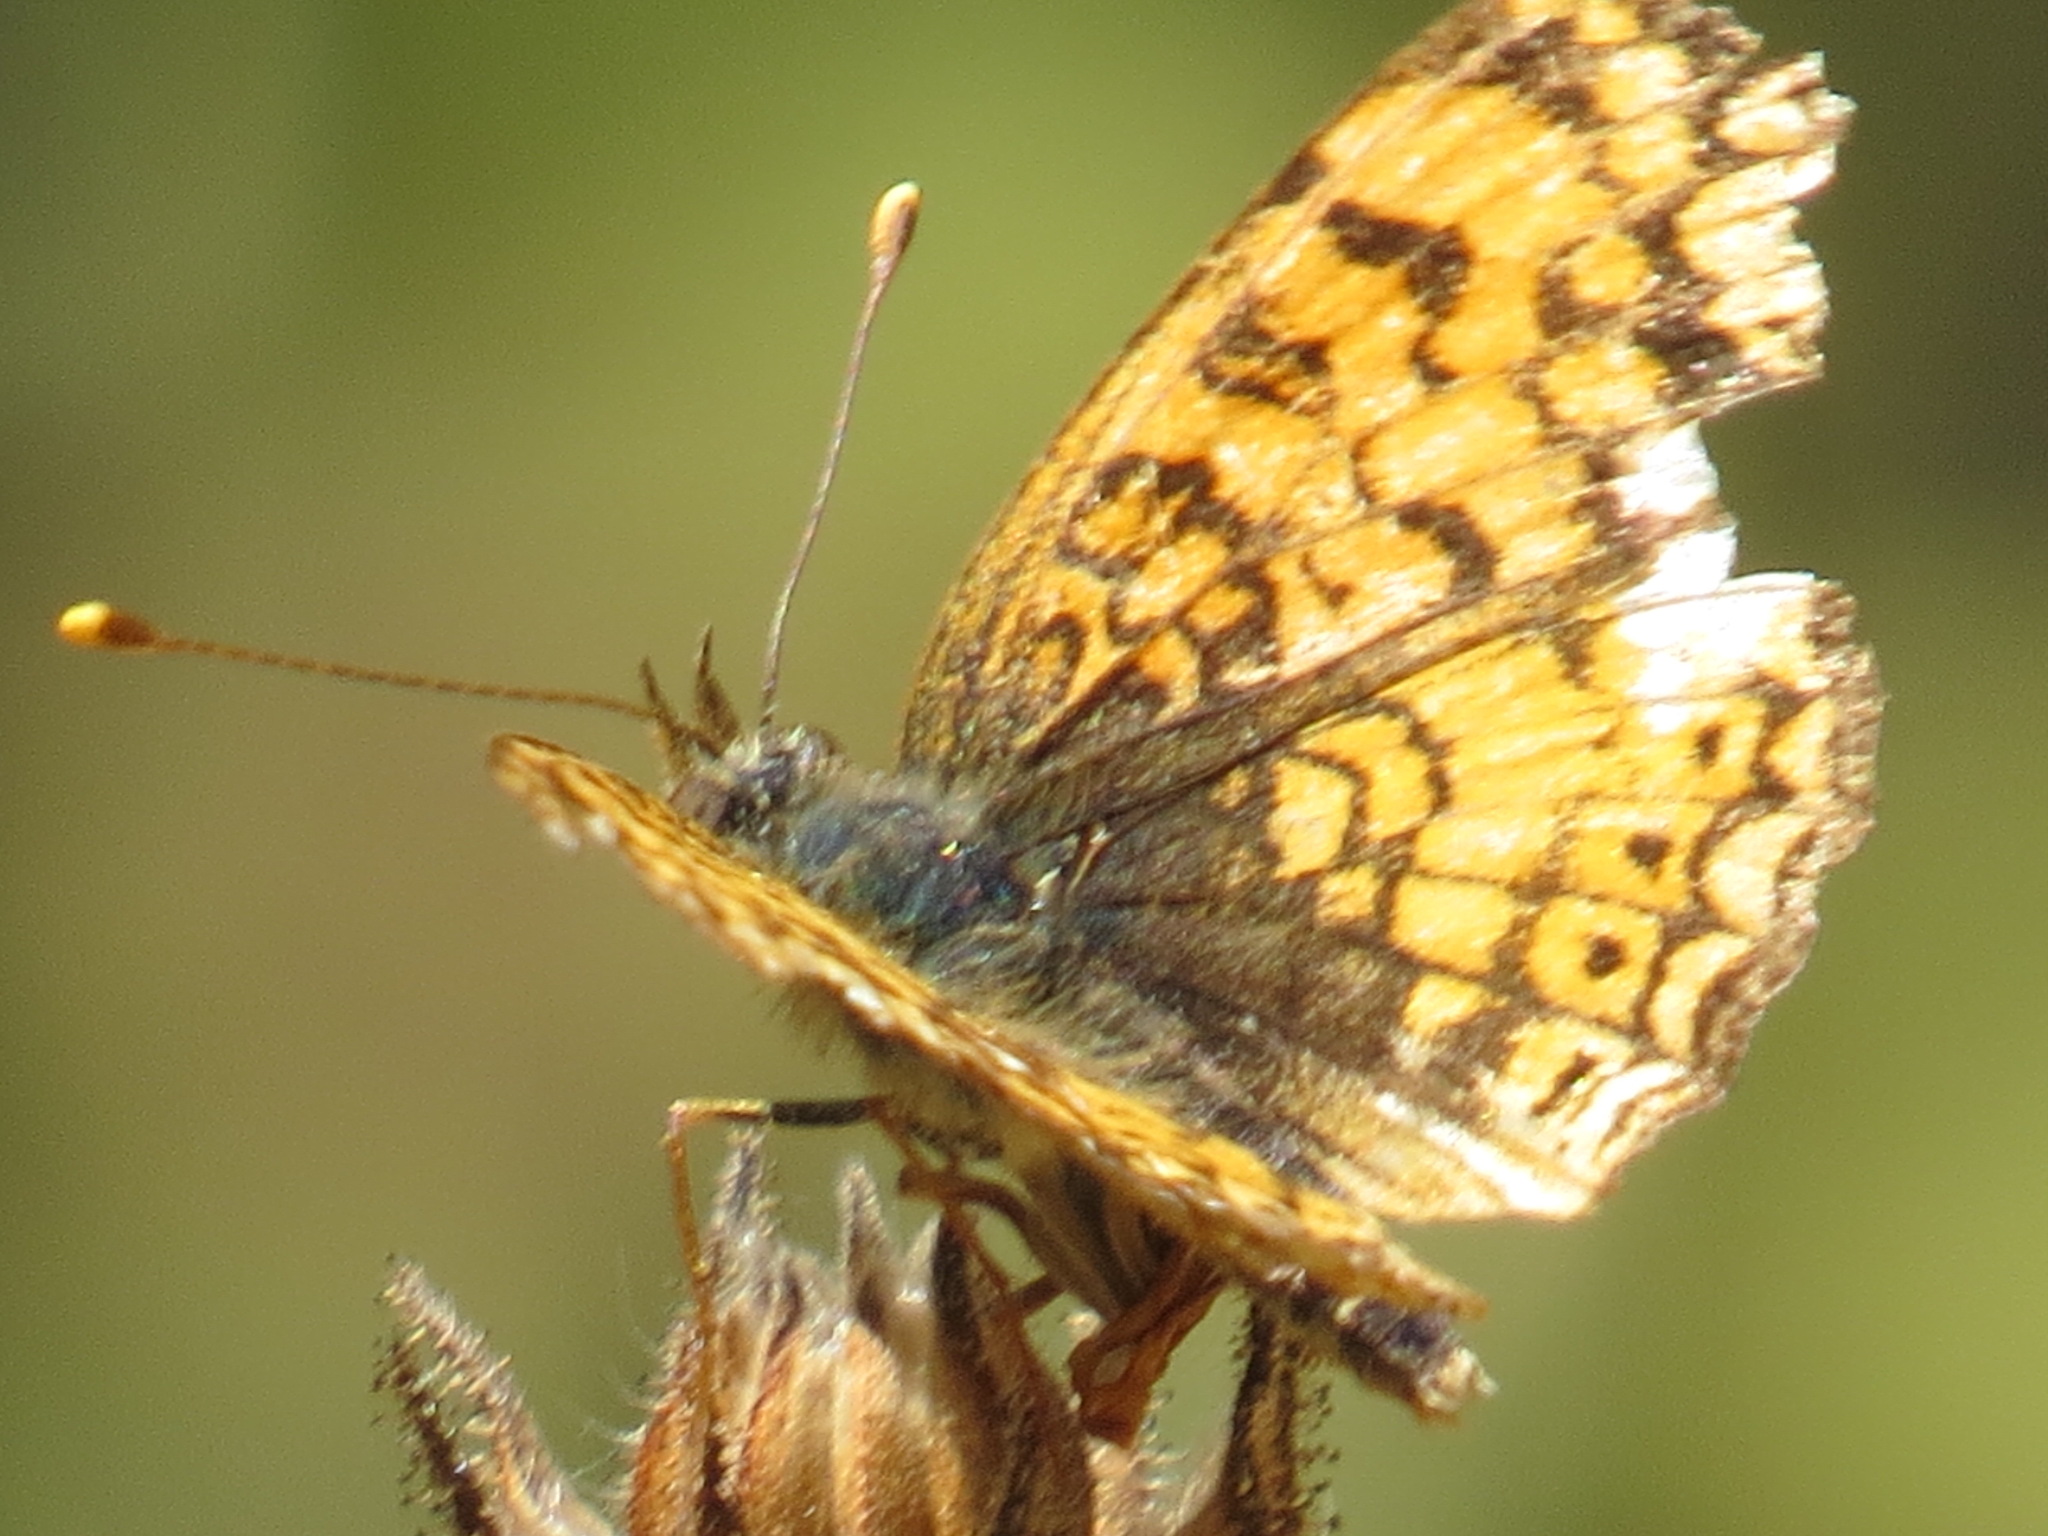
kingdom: Animalia
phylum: Arthropoda
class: Insecta
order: Lepidoptera
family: Nymphalidae
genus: Eresia
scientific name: Eresia aveyrona
